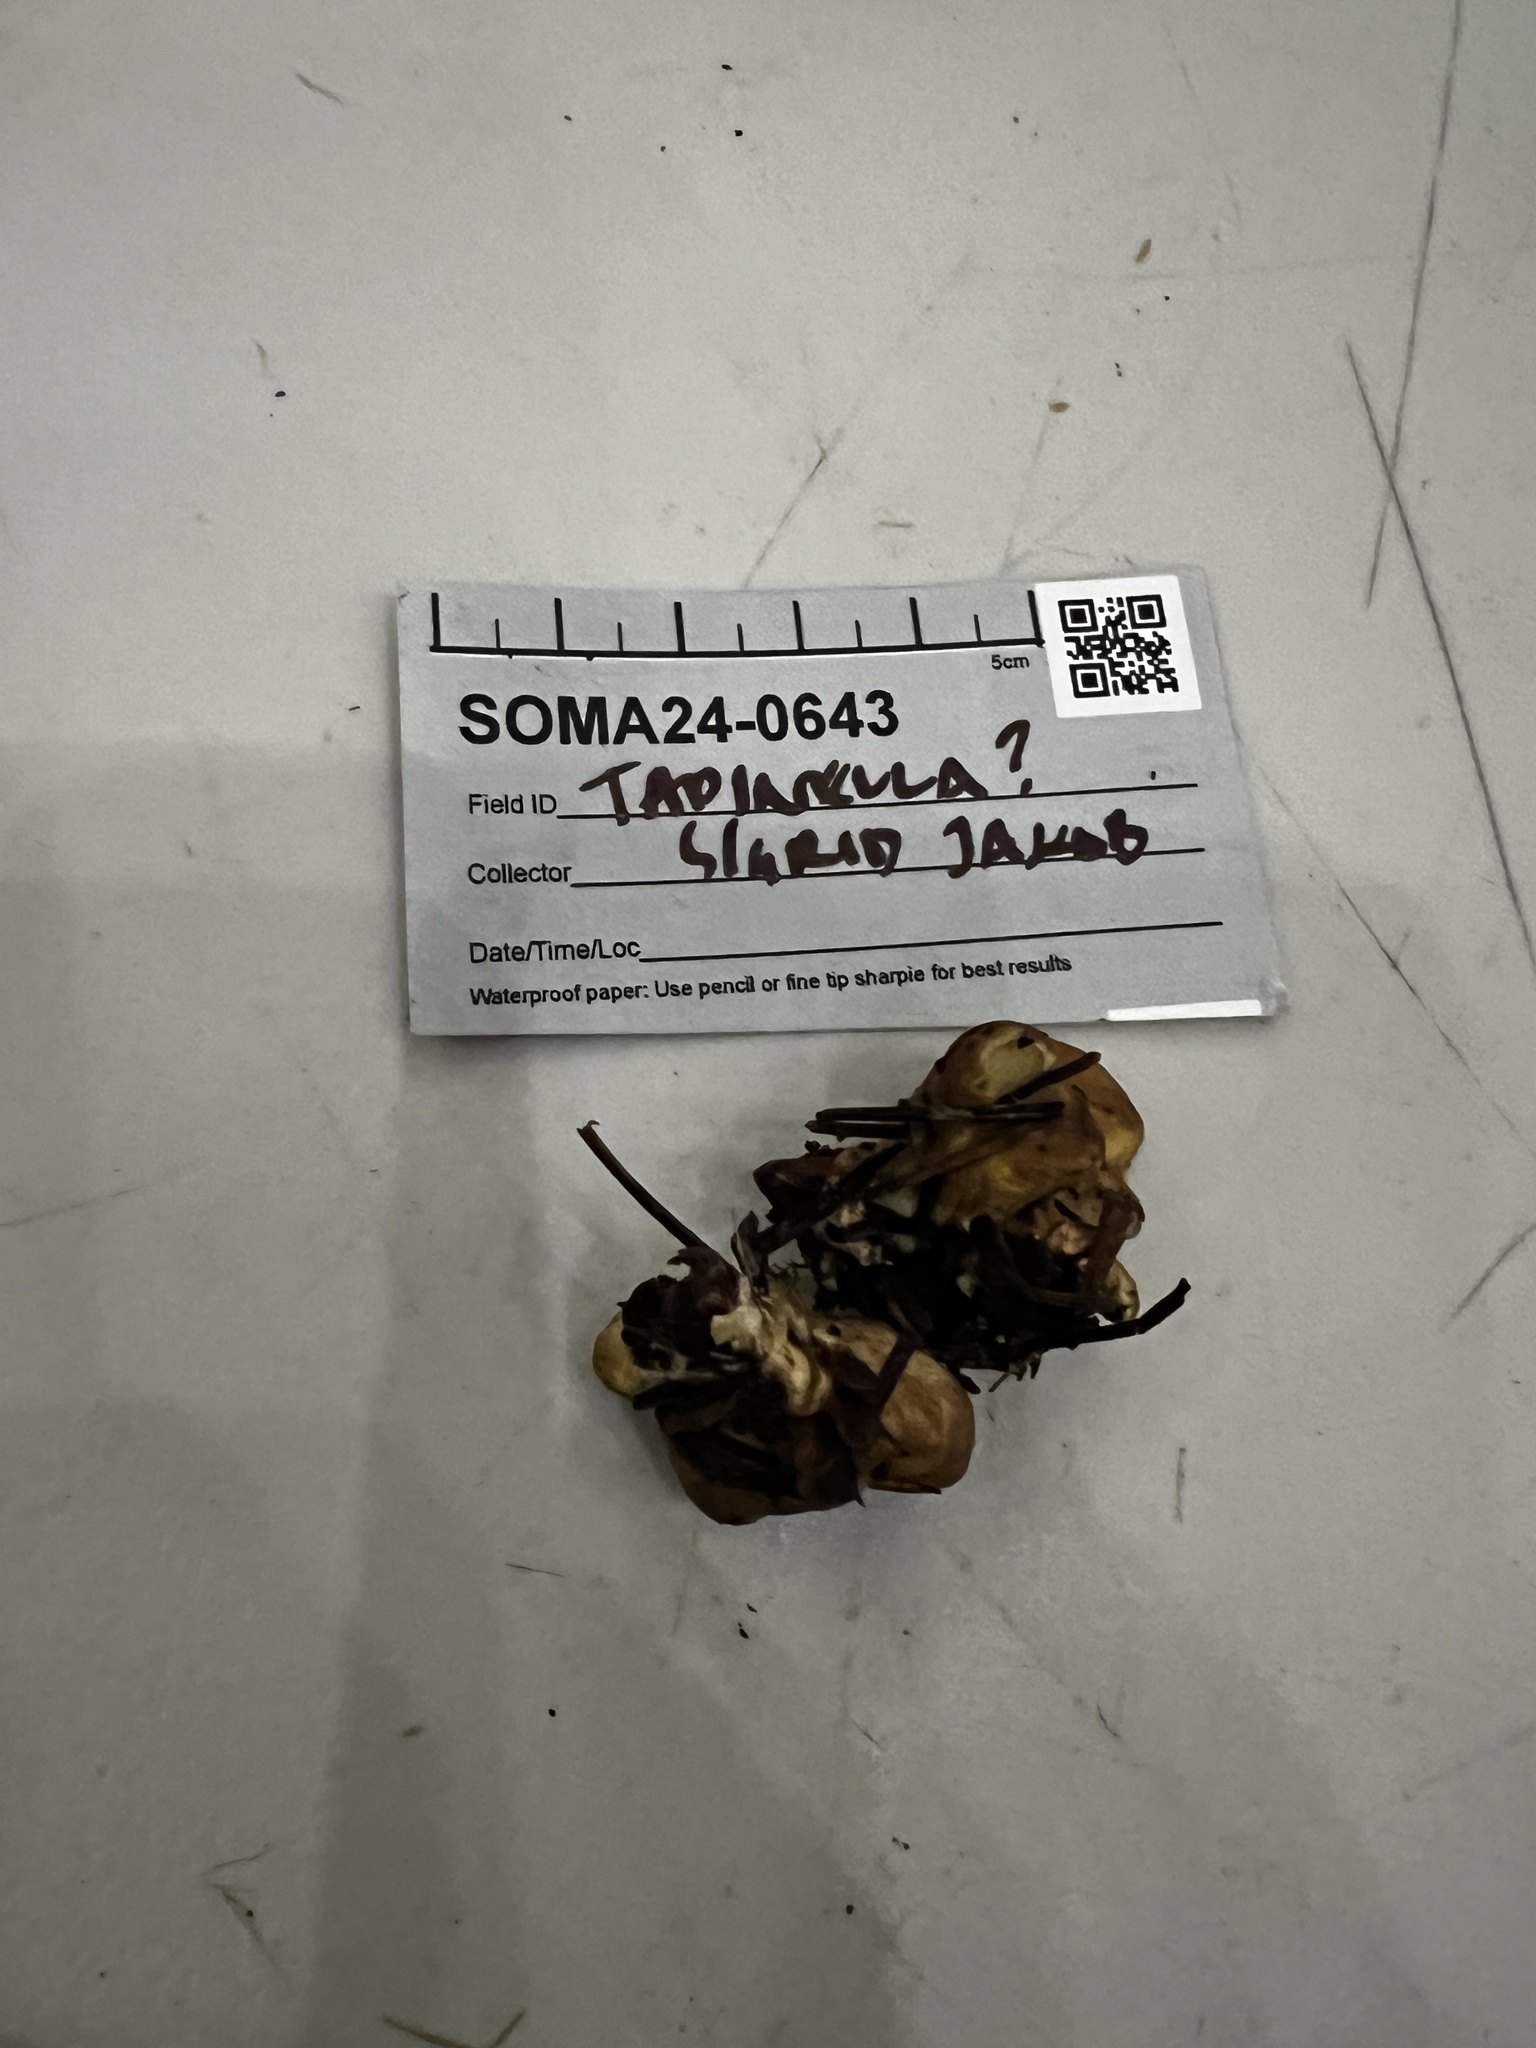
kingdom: Fungi
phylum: Basidiomycota
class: Agaricomycetes
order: Boletales
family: Tapinellaceae
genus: Tapinella
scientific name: Tapinella panuoides
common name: Oyster rollrim
